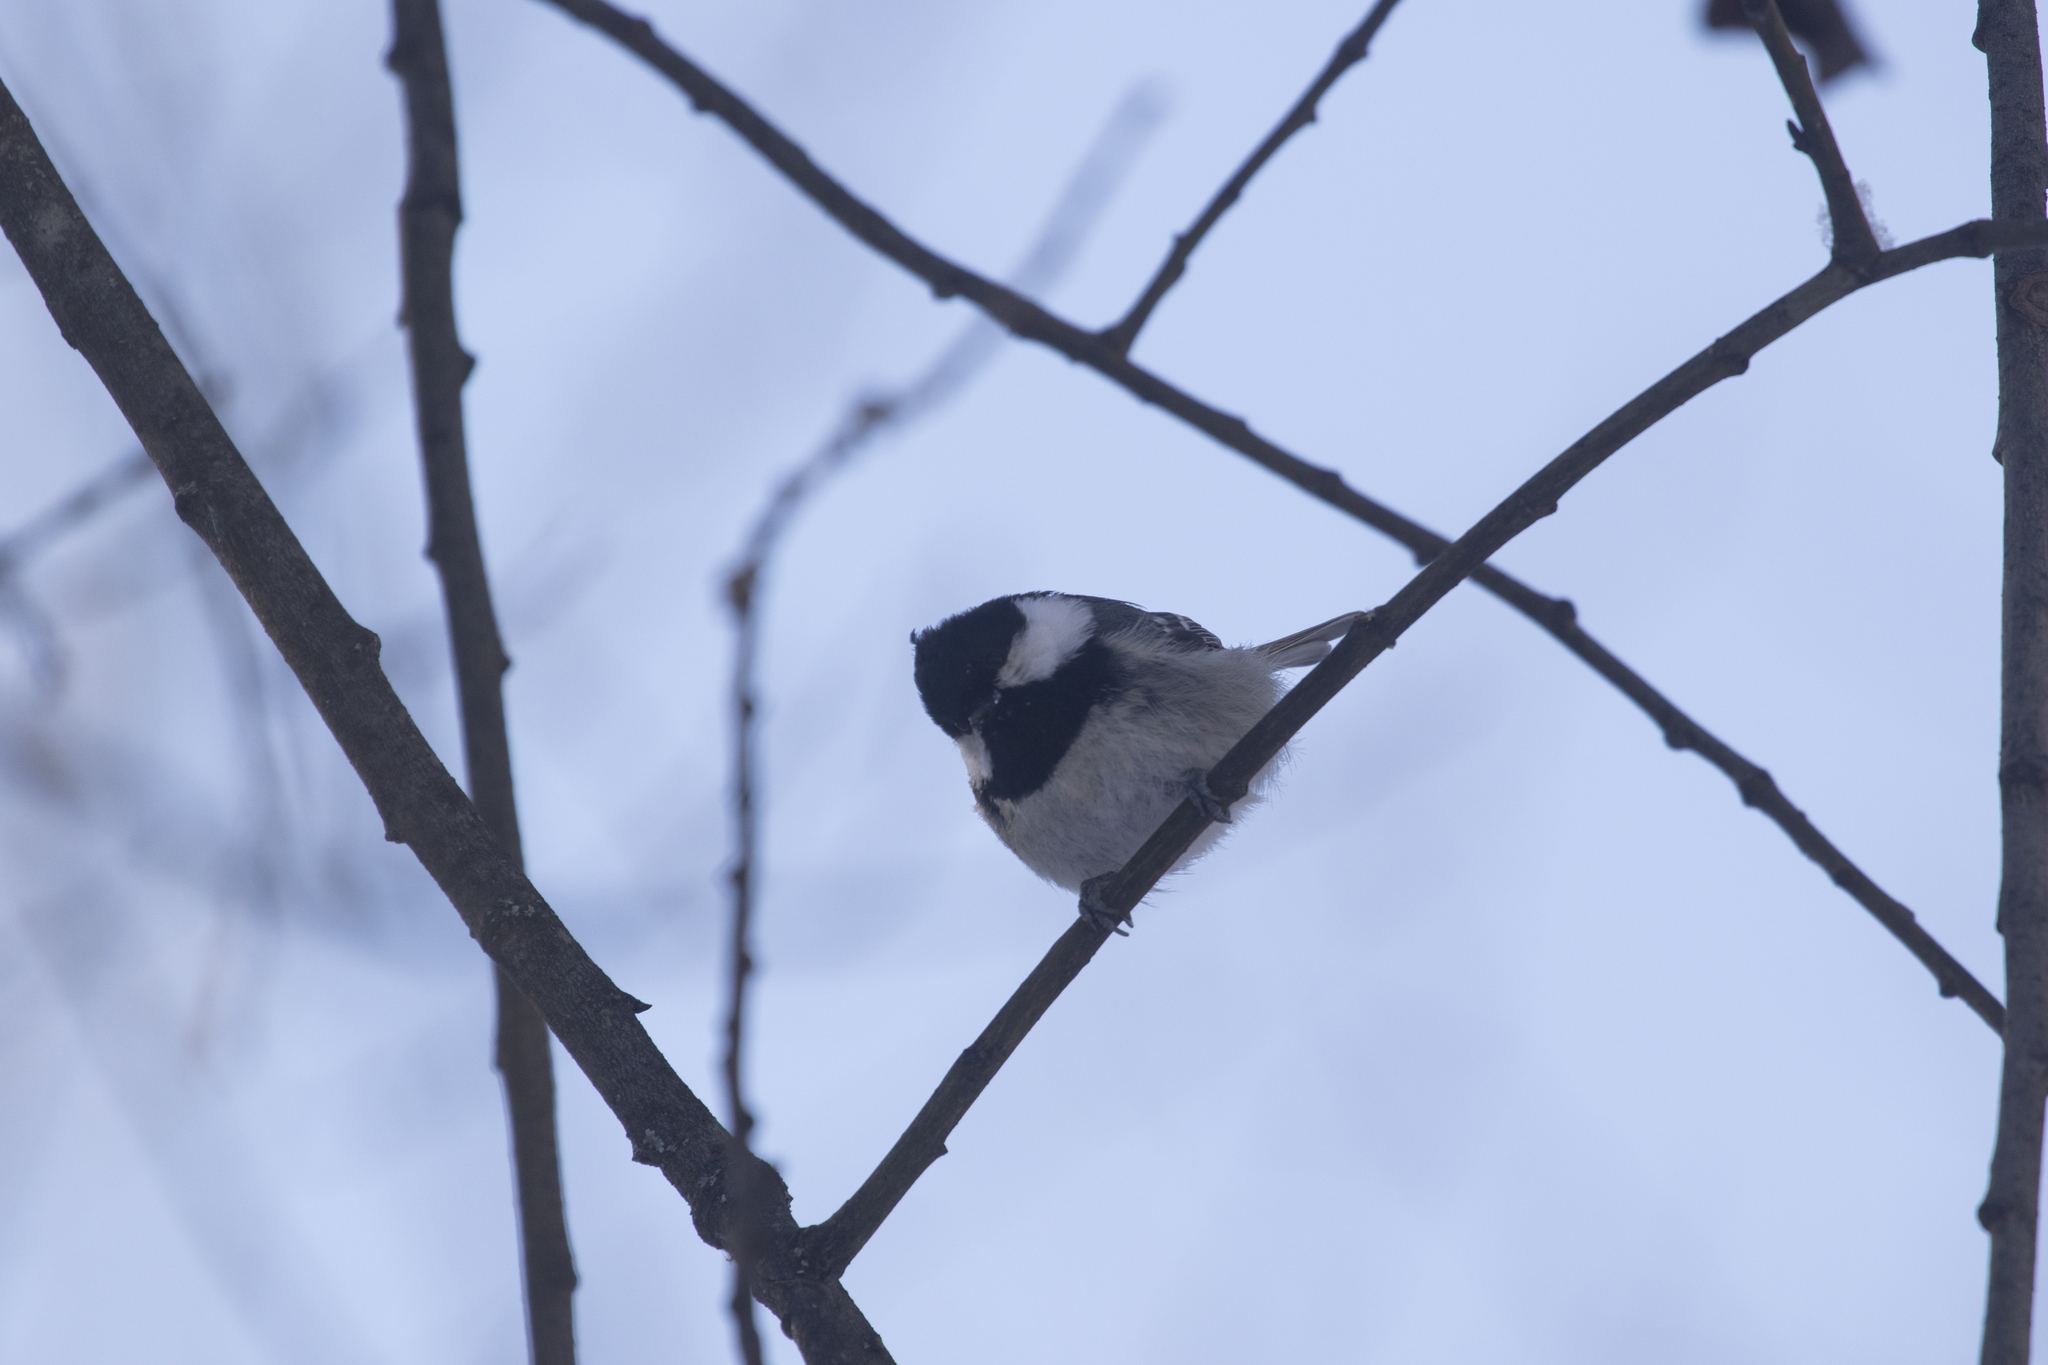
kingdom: Animalia
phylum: Chordata
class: Aves
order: Passeriformes
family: Paridae
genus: Periparus
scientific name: Periparus ater
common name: Coal tit
